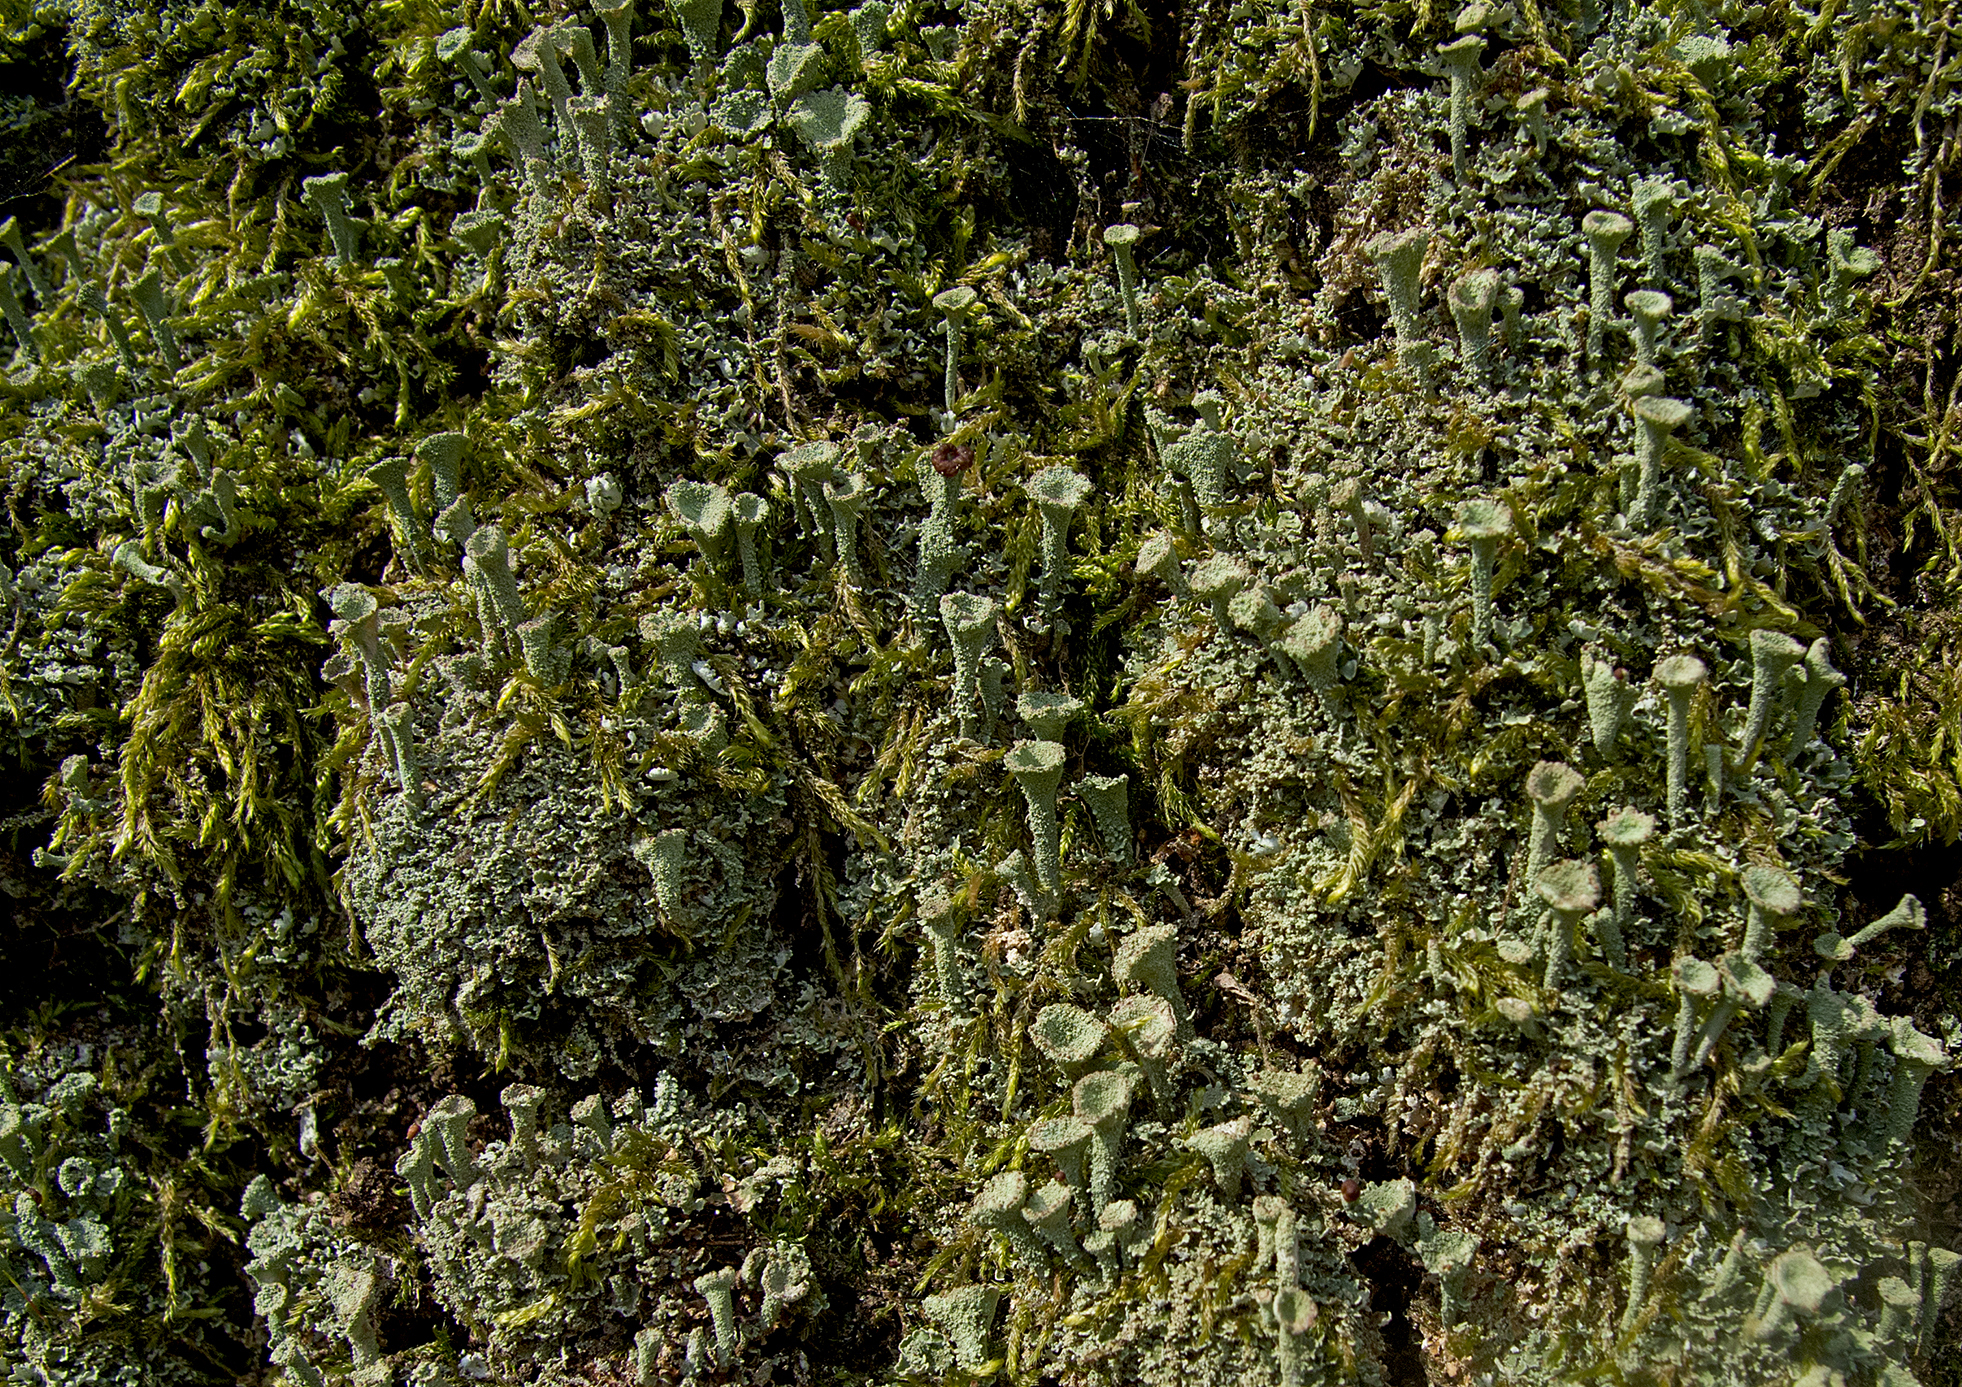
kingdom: Fungi
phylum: Ascomycota
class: Lecanoromycetes
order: Lecanorales
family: Cladoniaceae
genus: Cladonia
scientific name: Cladonia deformis
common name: Lesser sulphur-cup lichen
